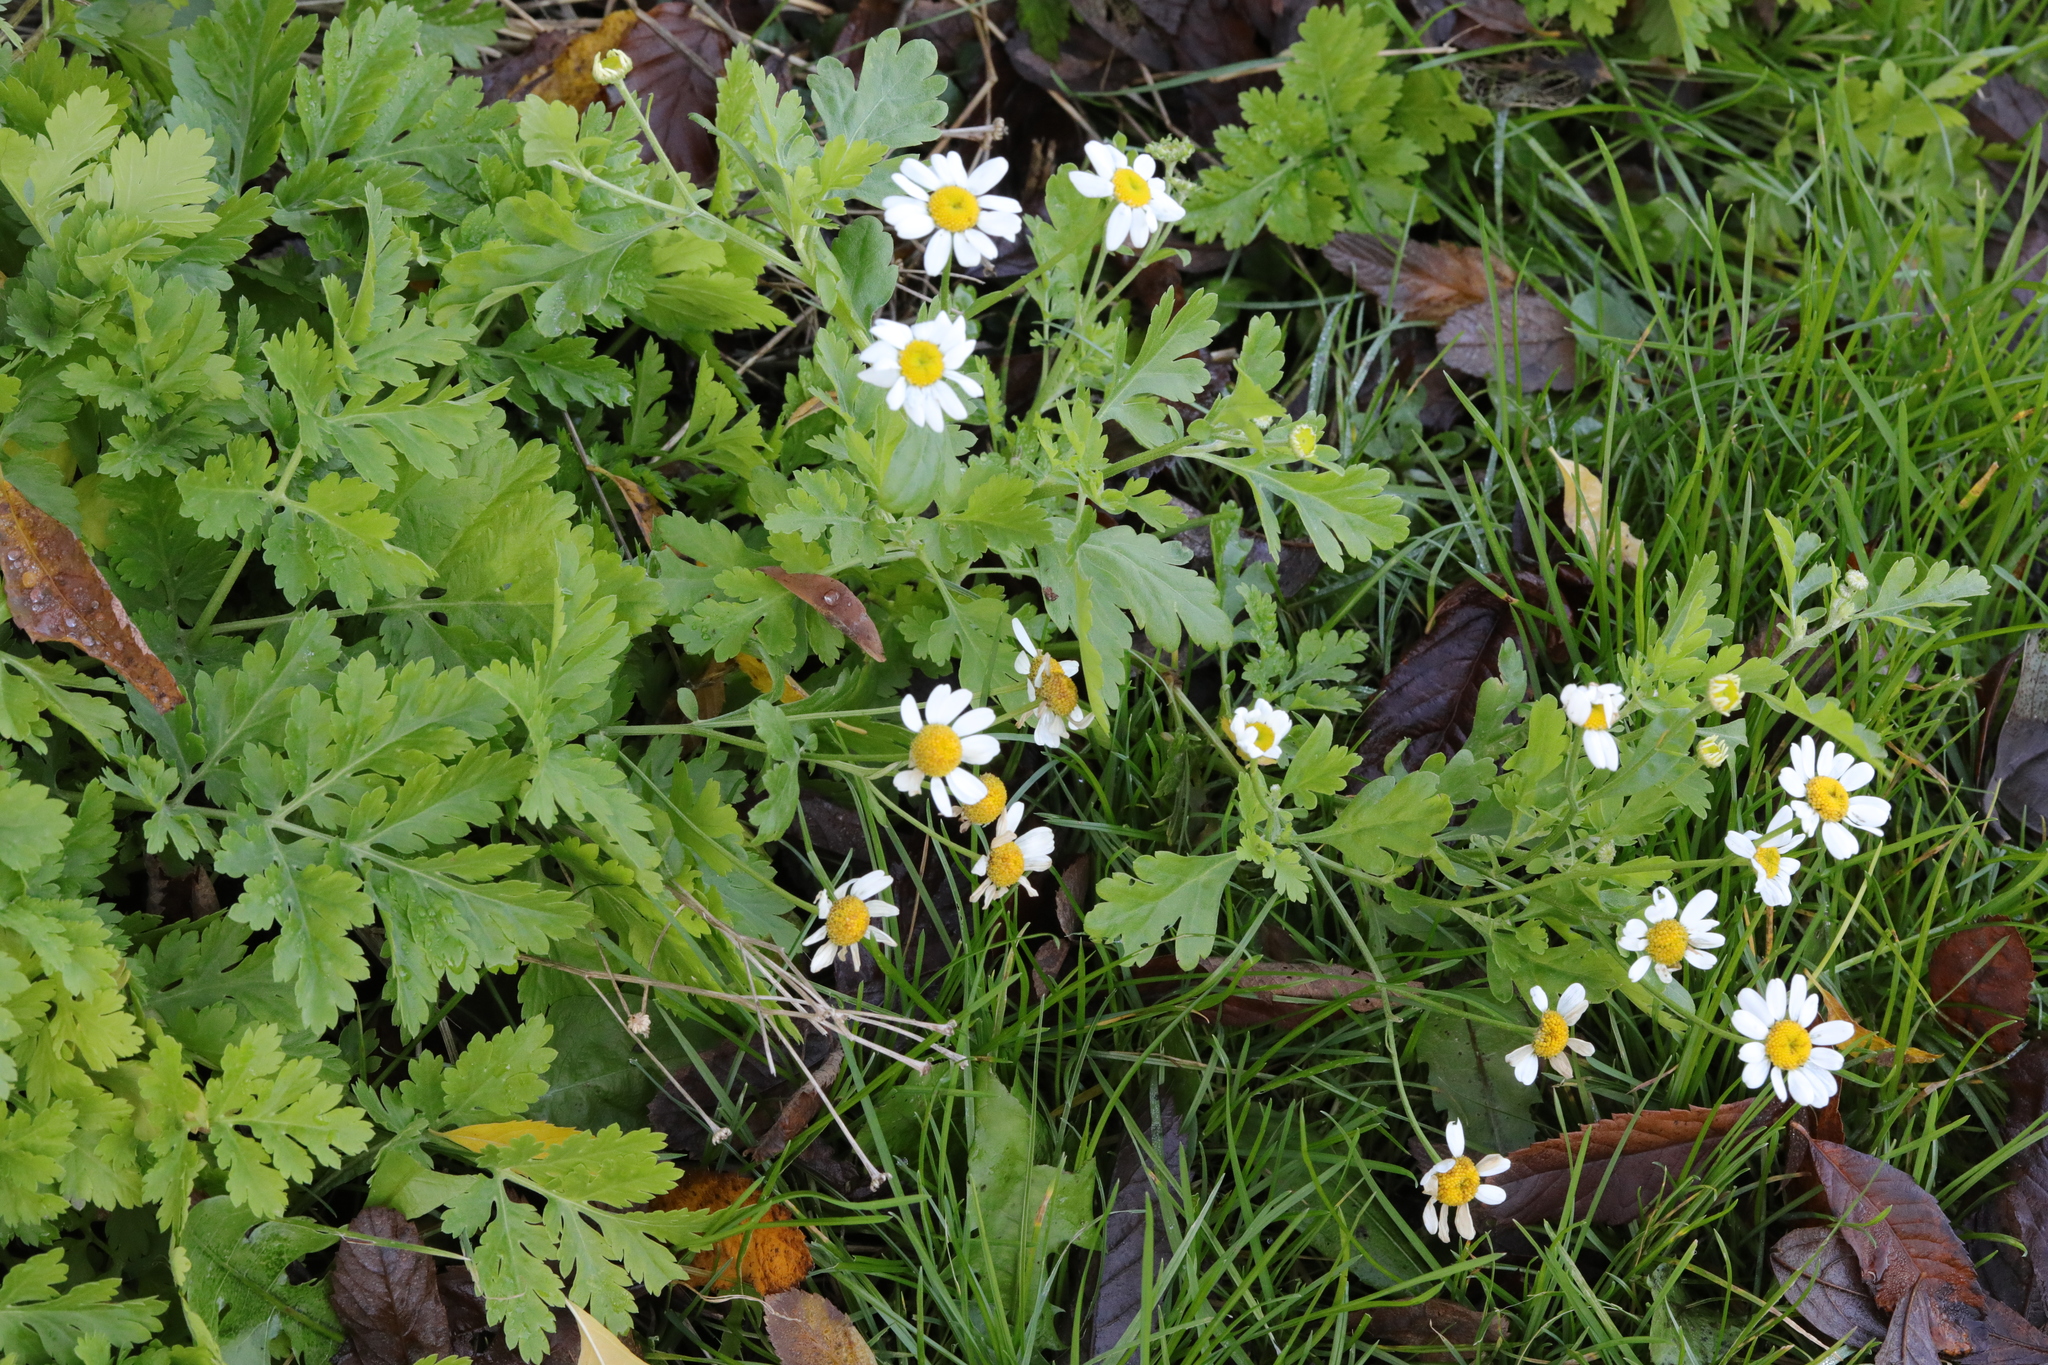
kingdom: Plantae
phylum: Tracheophyta
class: Magnoliopsida
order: Asterales
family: Asteraceae
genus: Tanacetum
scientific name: Tanacetum parthenium
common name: Feverfew
